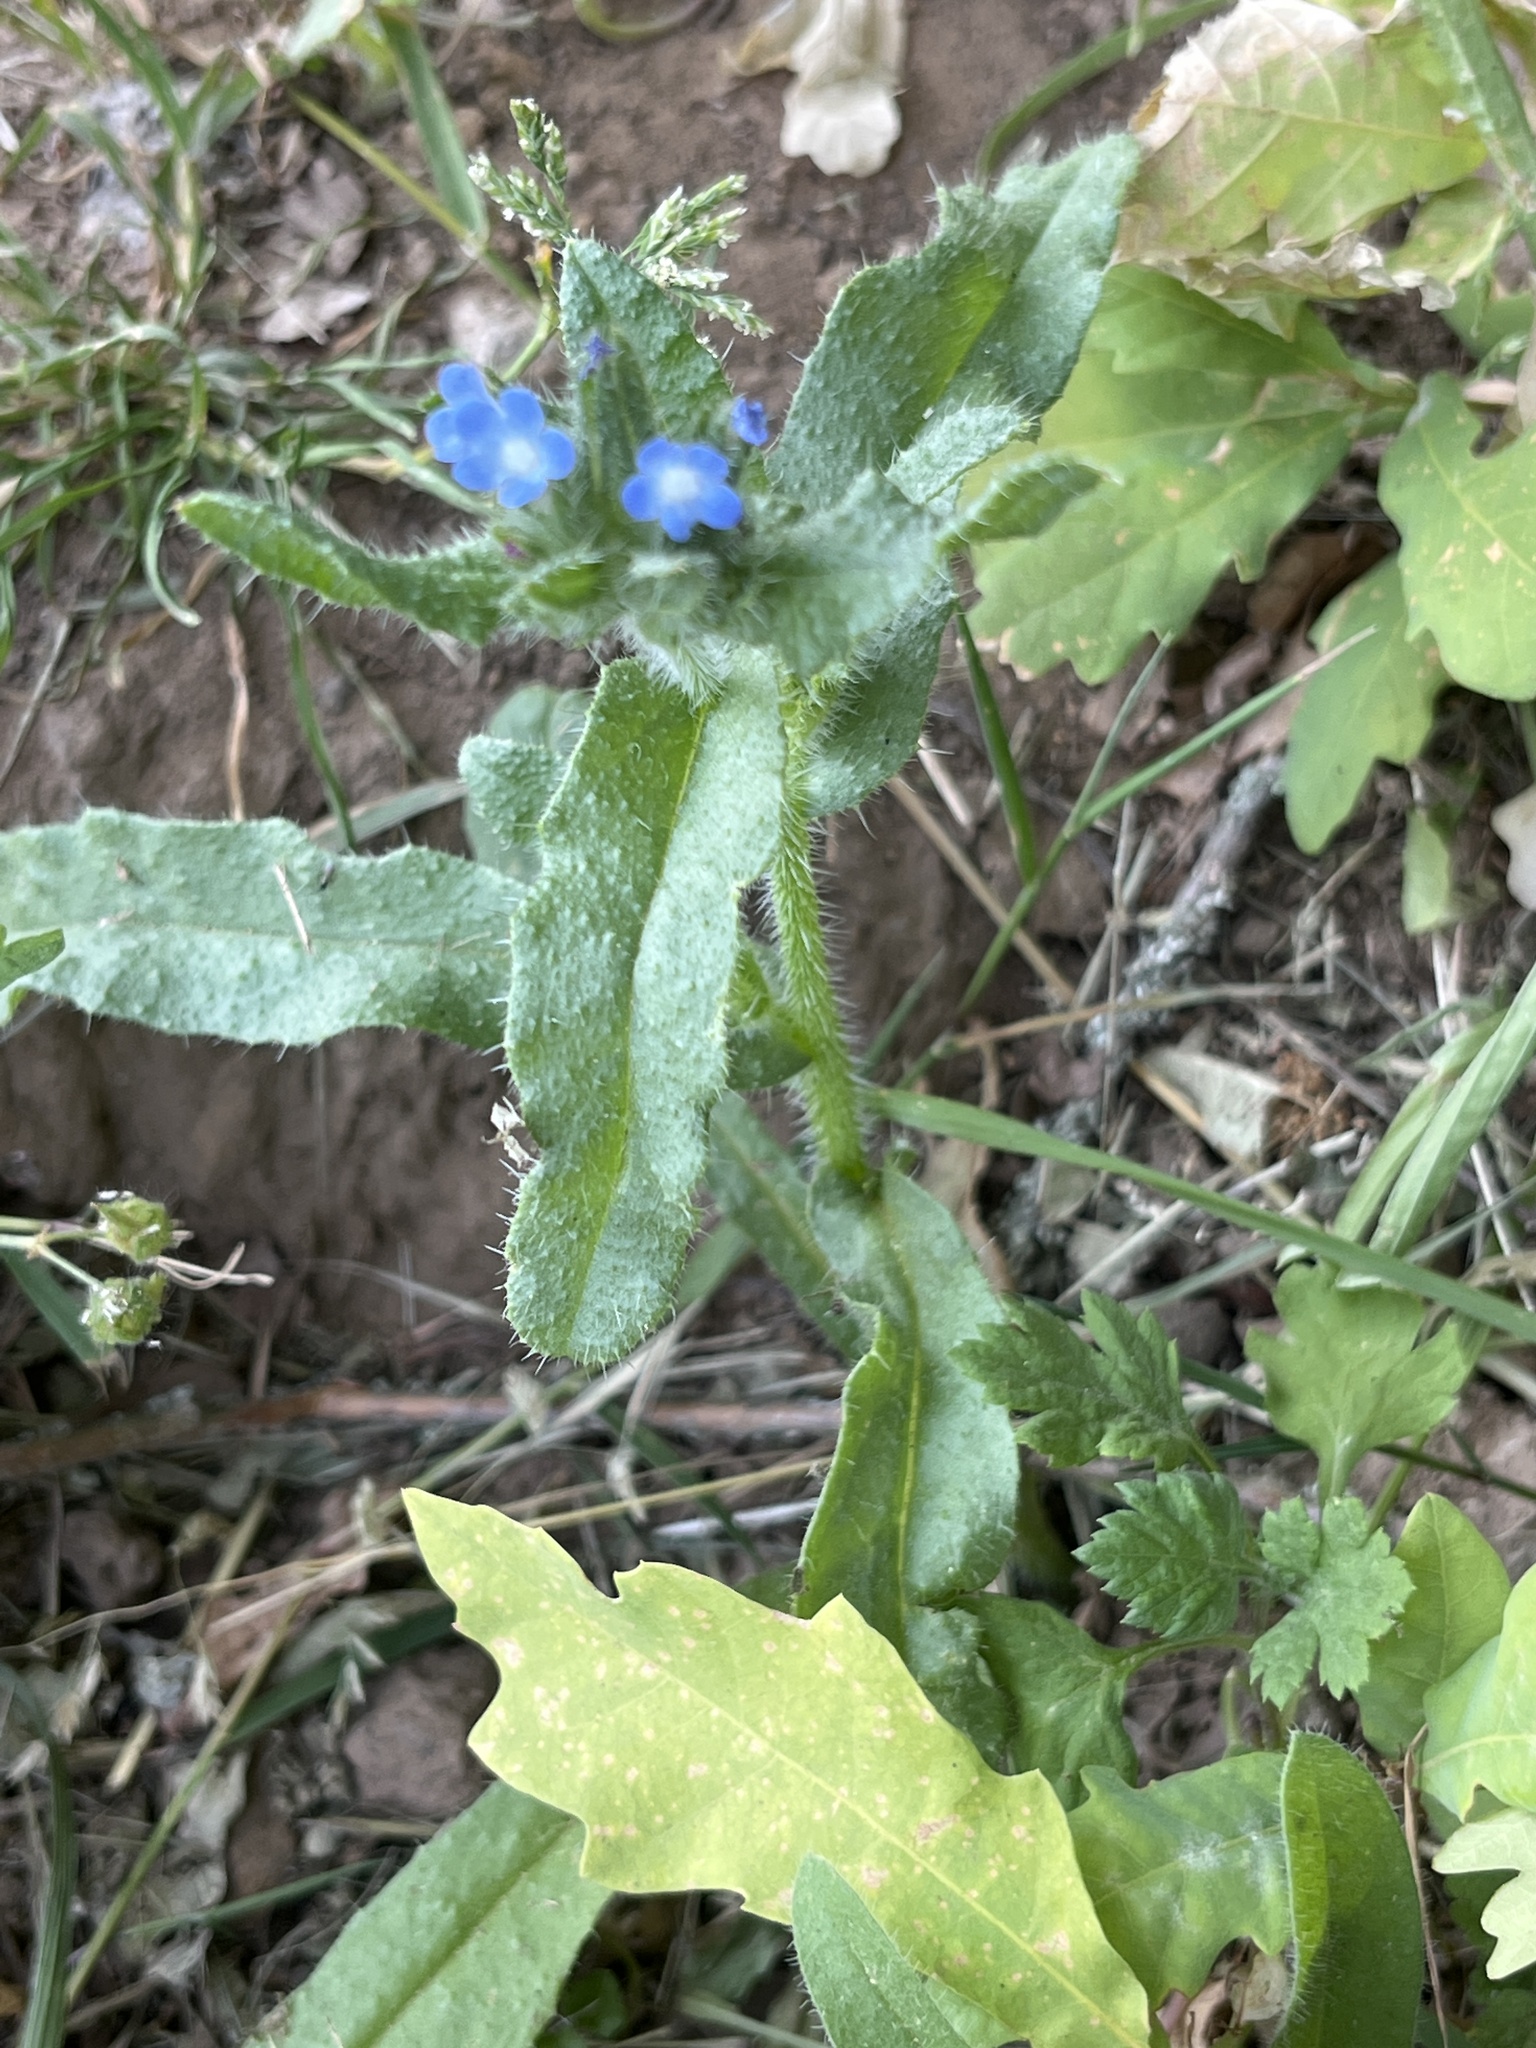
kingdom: Plantae
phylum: Tracheophyta
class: Magnoliopsida
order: Boraginales
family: Boraginaceae
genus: Anchusa
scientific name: Anchusa officinalis
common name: Alkanet
